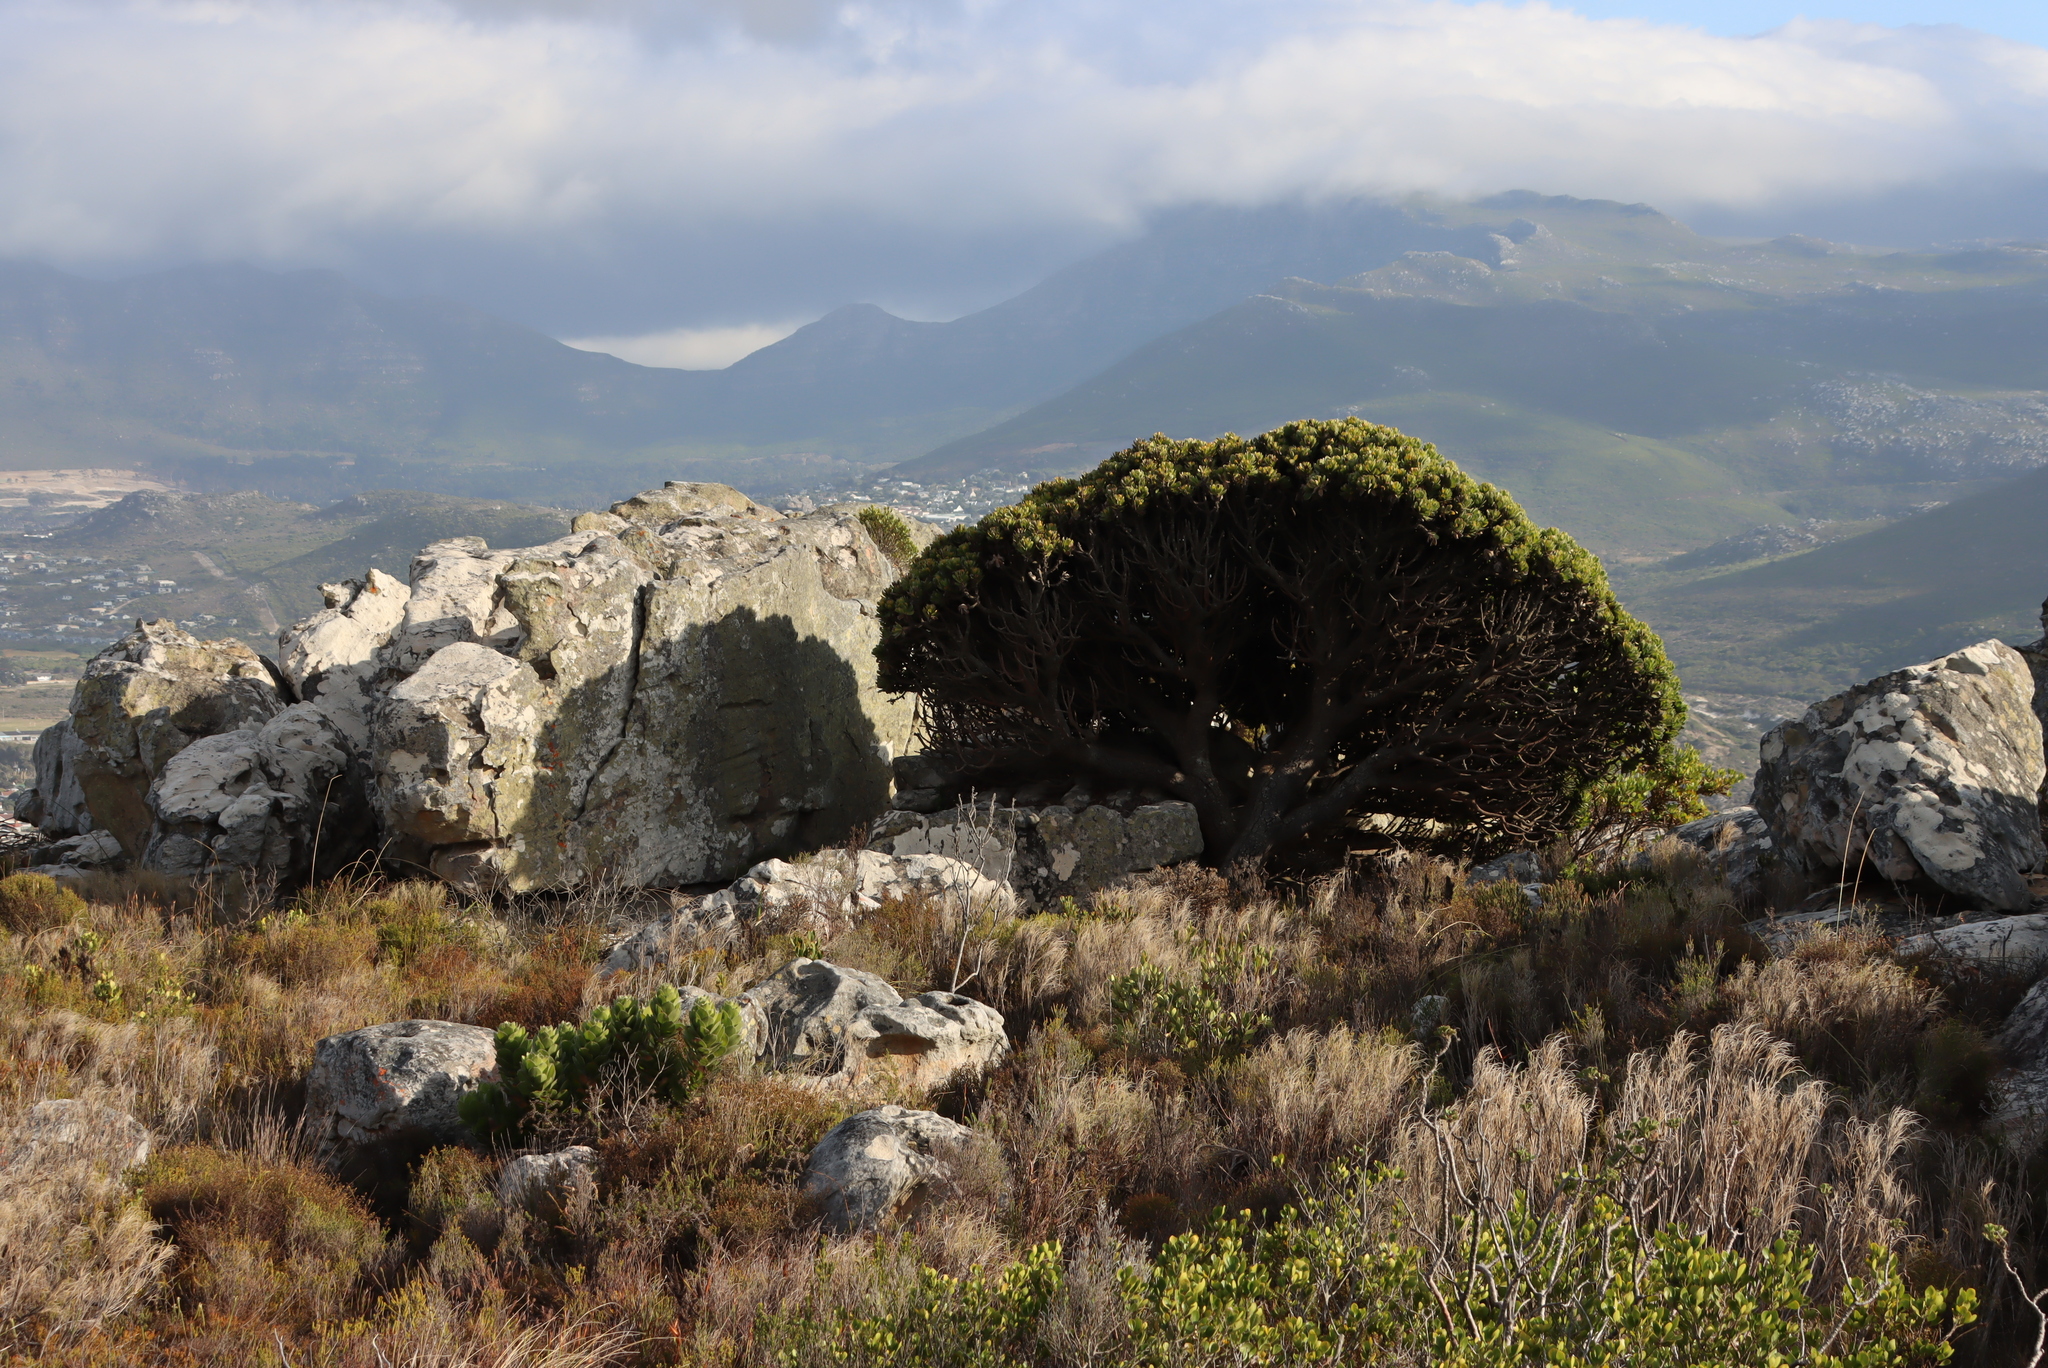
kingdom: Plantae
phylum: Tracheophyta
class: Magnoliopsida
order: Proteales
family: Proteaceae
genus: Mimetes
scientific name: Mimetes fimbriifolius
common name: Fringed bottlebrush
